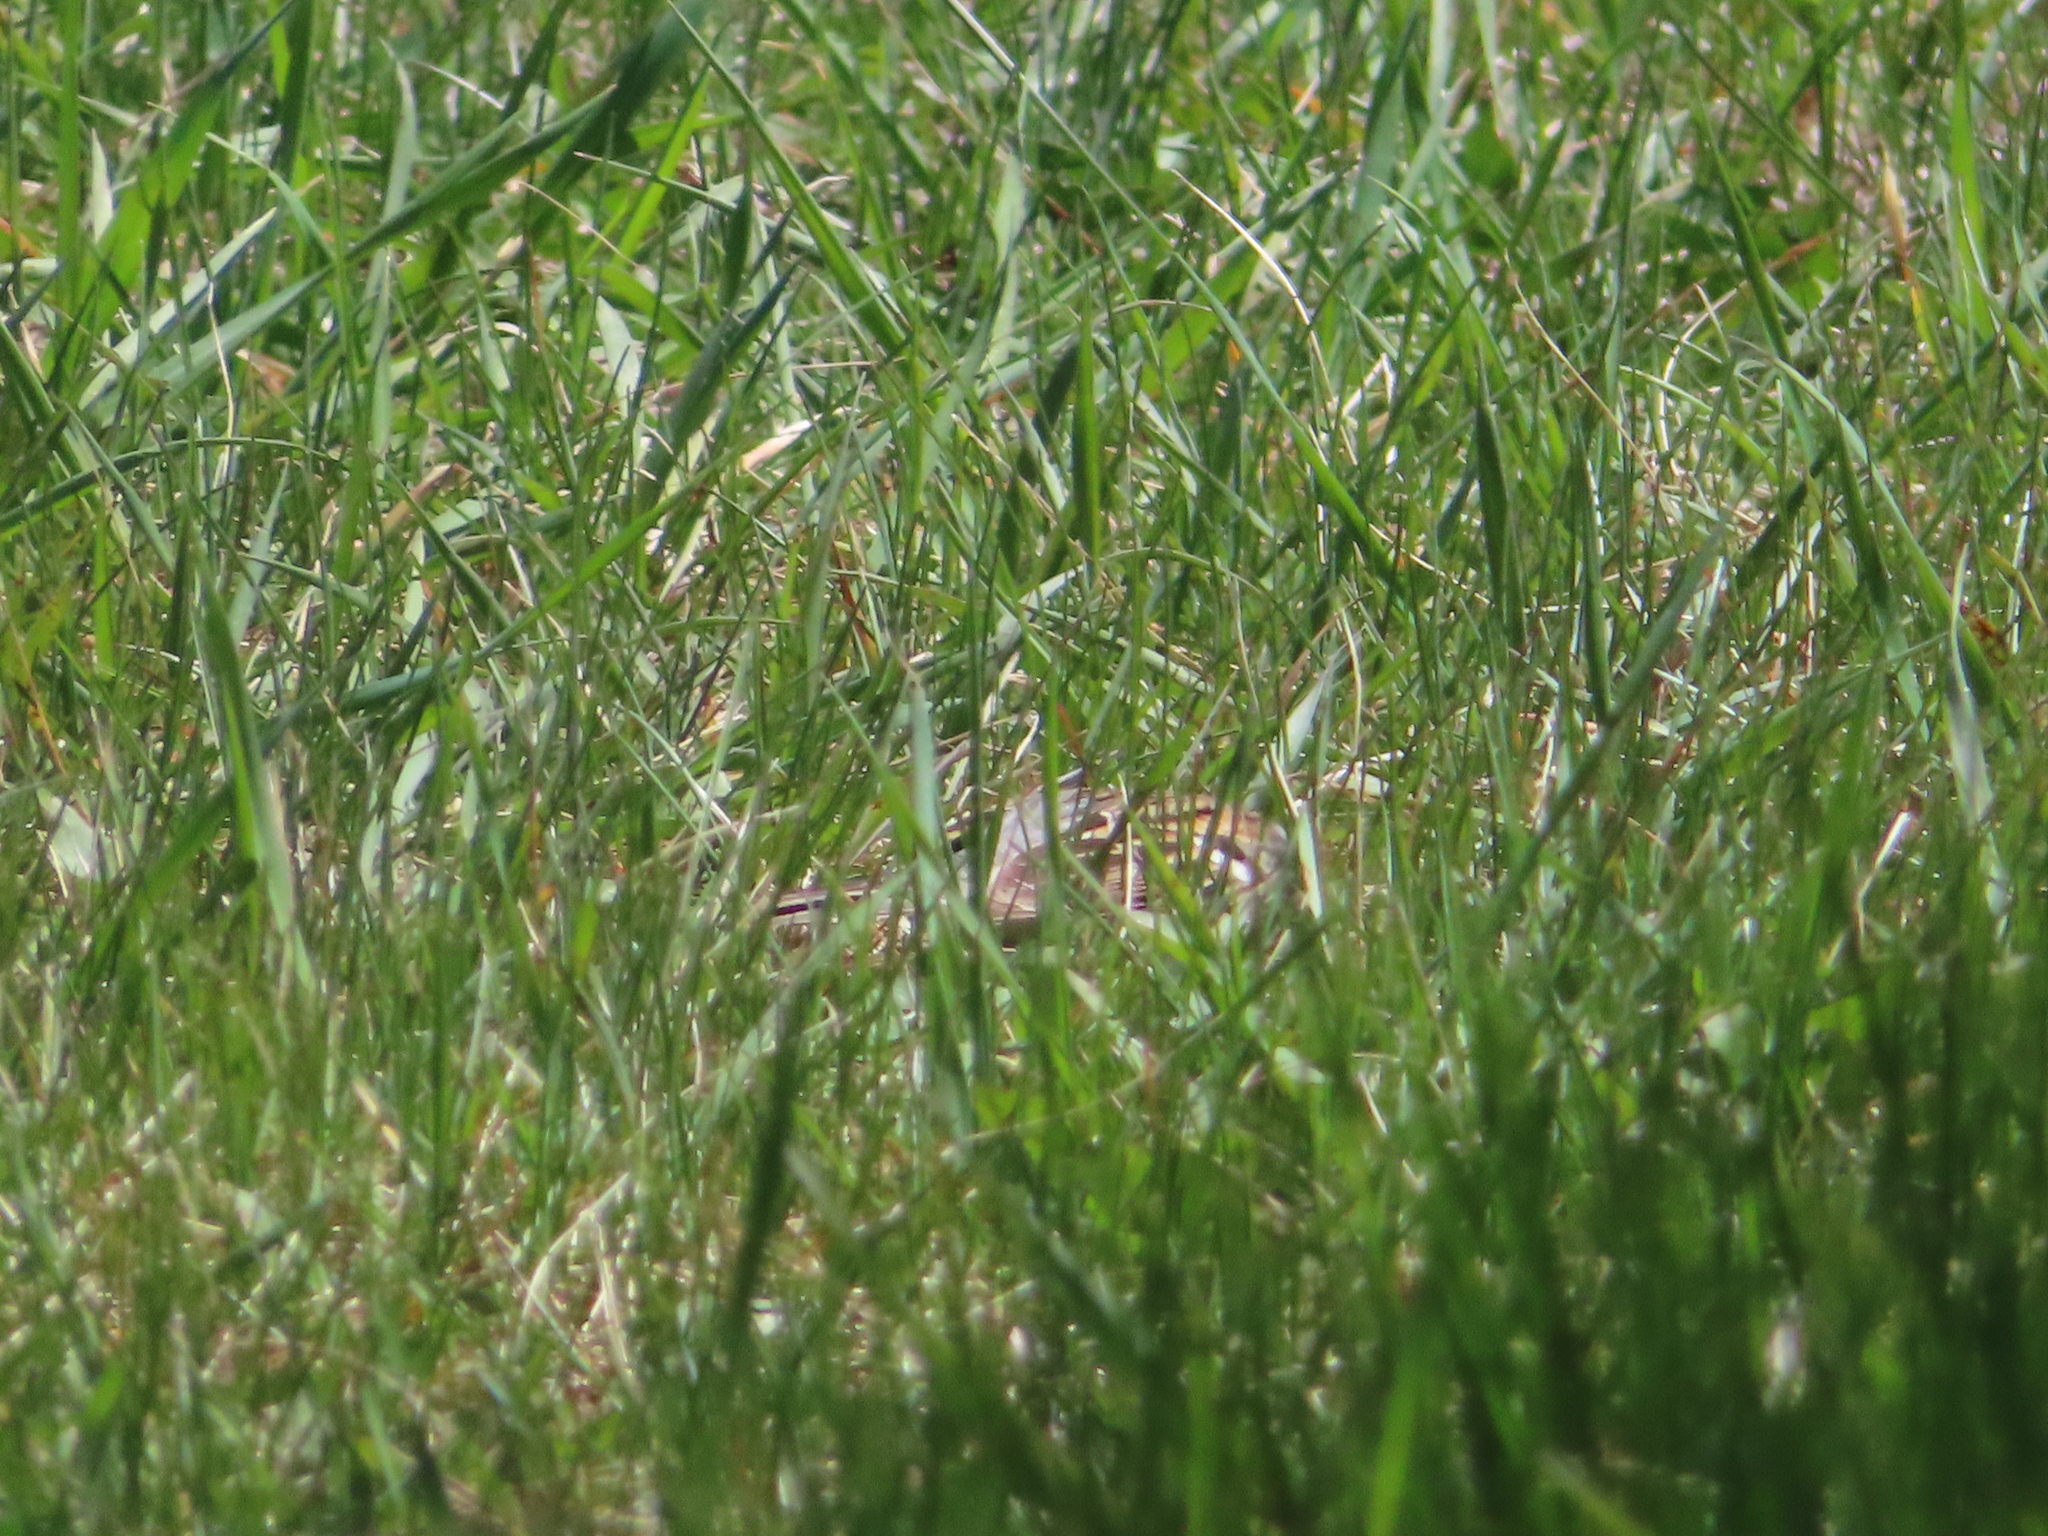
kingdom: Animalia
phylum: Chordata
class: Aves
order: Passeriformes
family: Passerellidae
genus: Spizella
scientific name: Spizella passerina
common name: Chipping sparrow
